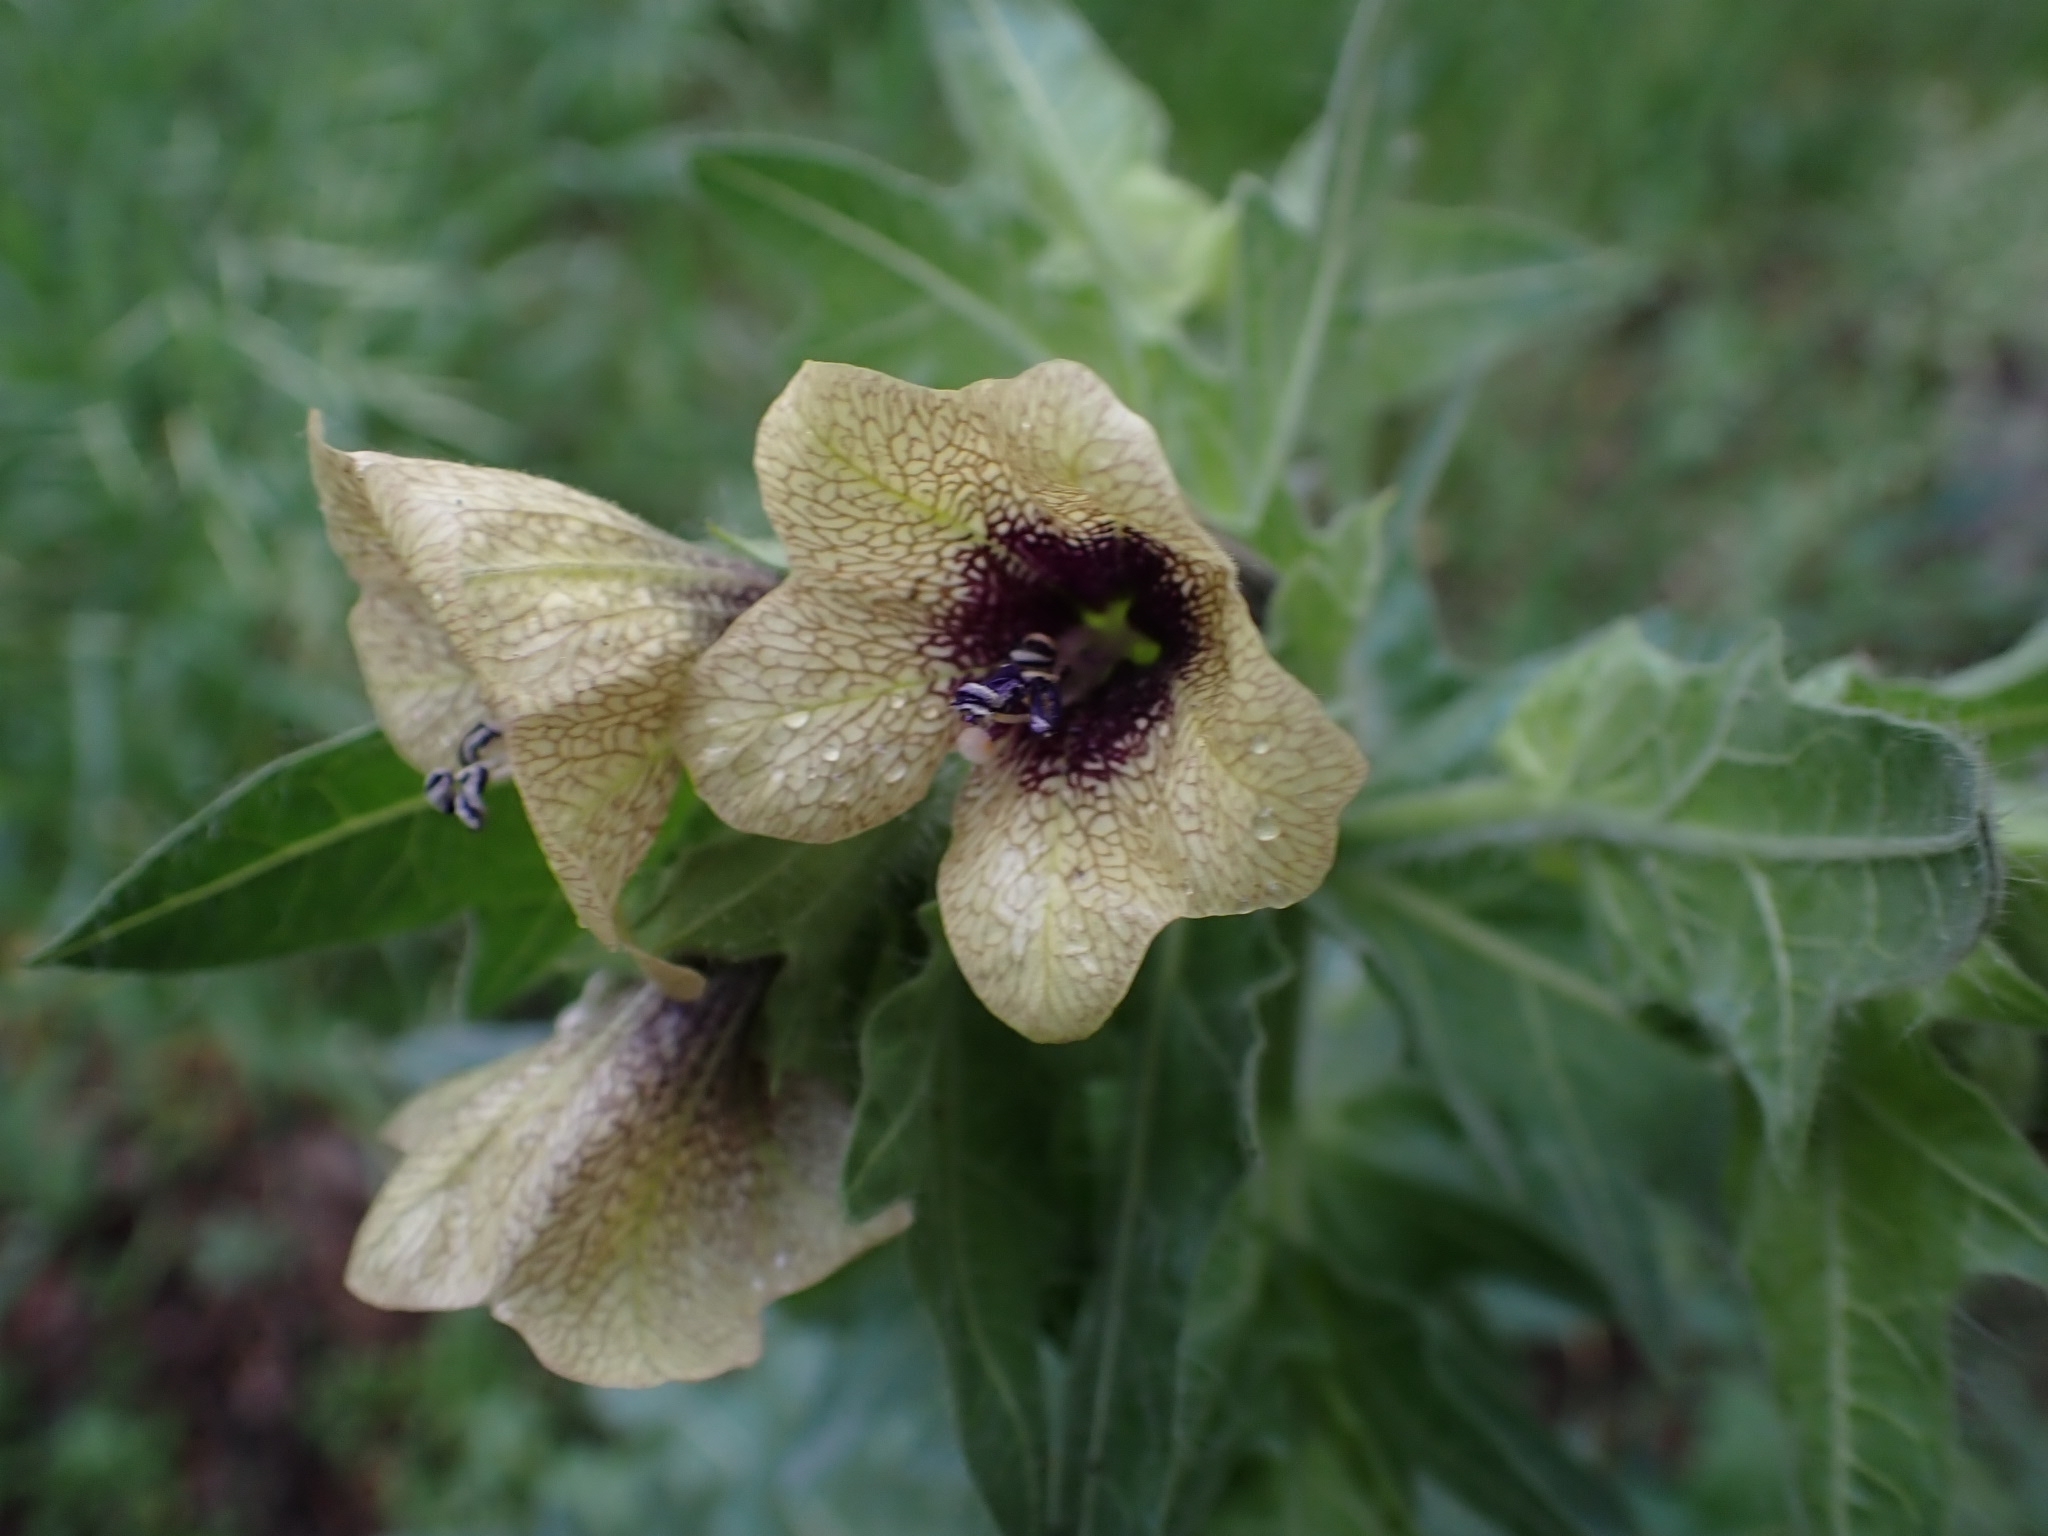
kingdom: Plantae
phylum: Tracheophyta
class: Magnoliopsida
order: Solanales
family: Solanaceae
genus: Hyoscyamus
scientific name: Hyoscyamus niger
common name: Henbane
